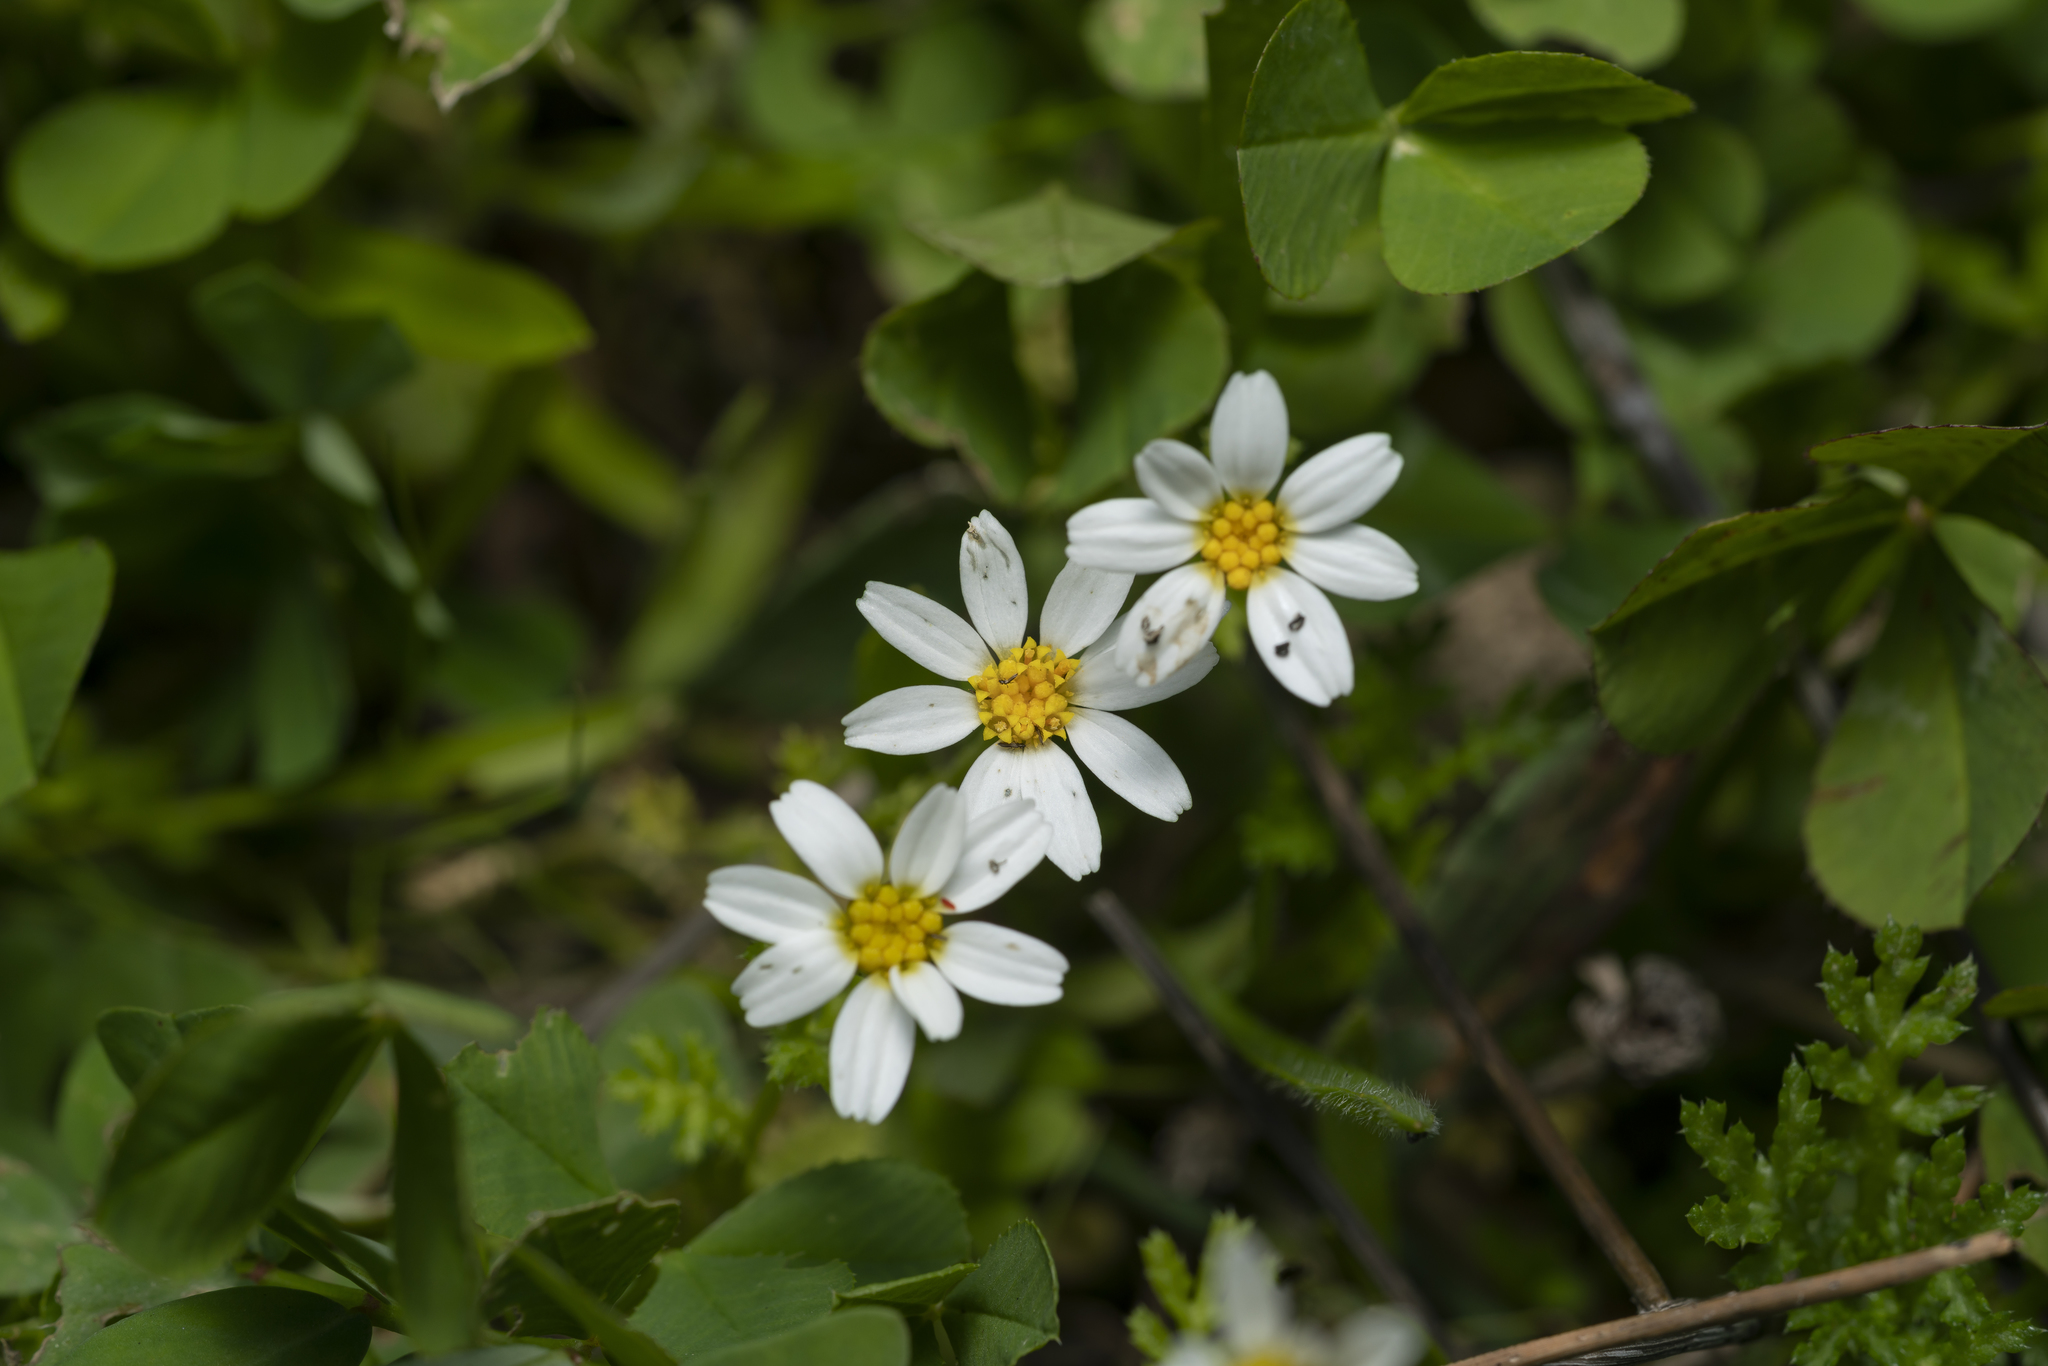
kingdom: Plantae
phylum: Tracheophyta
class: Magnoliopsida
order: Asterales
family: Asteraceae
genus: Anthemis
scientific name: Anthemis chia
